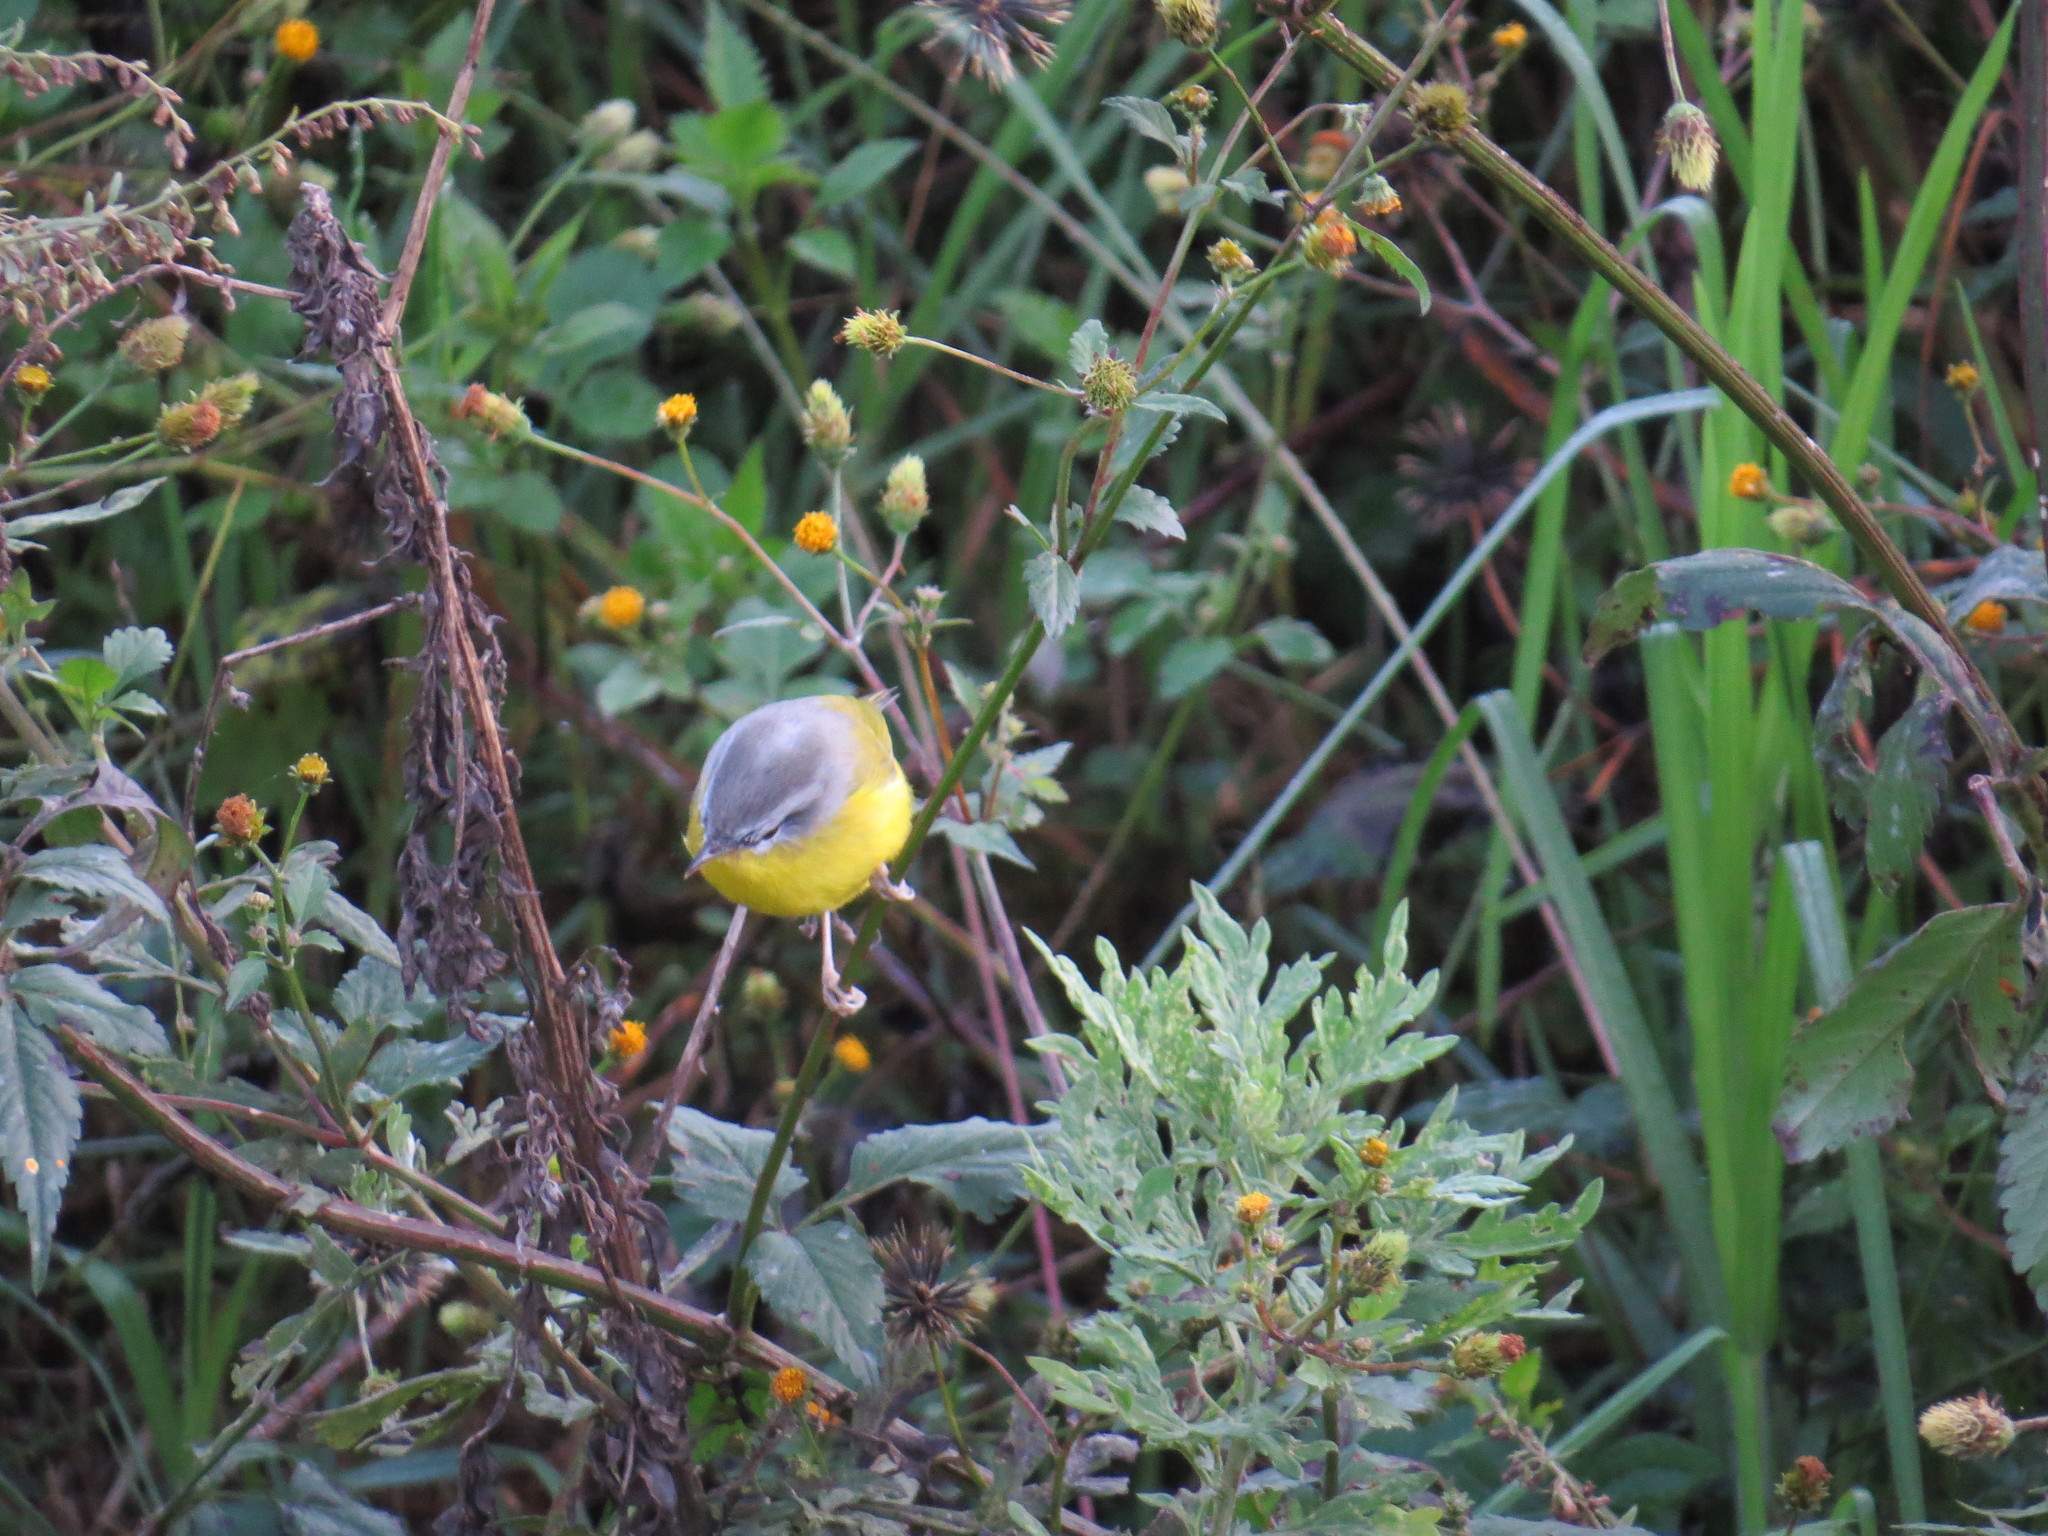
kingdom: Animalia
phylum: Chordata
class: Aves
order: Passeriformes
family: Phylloscopidae
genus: Phylloscopus
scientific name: Phylloscopus xanthoschistos
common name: Grey-hooded warbler
